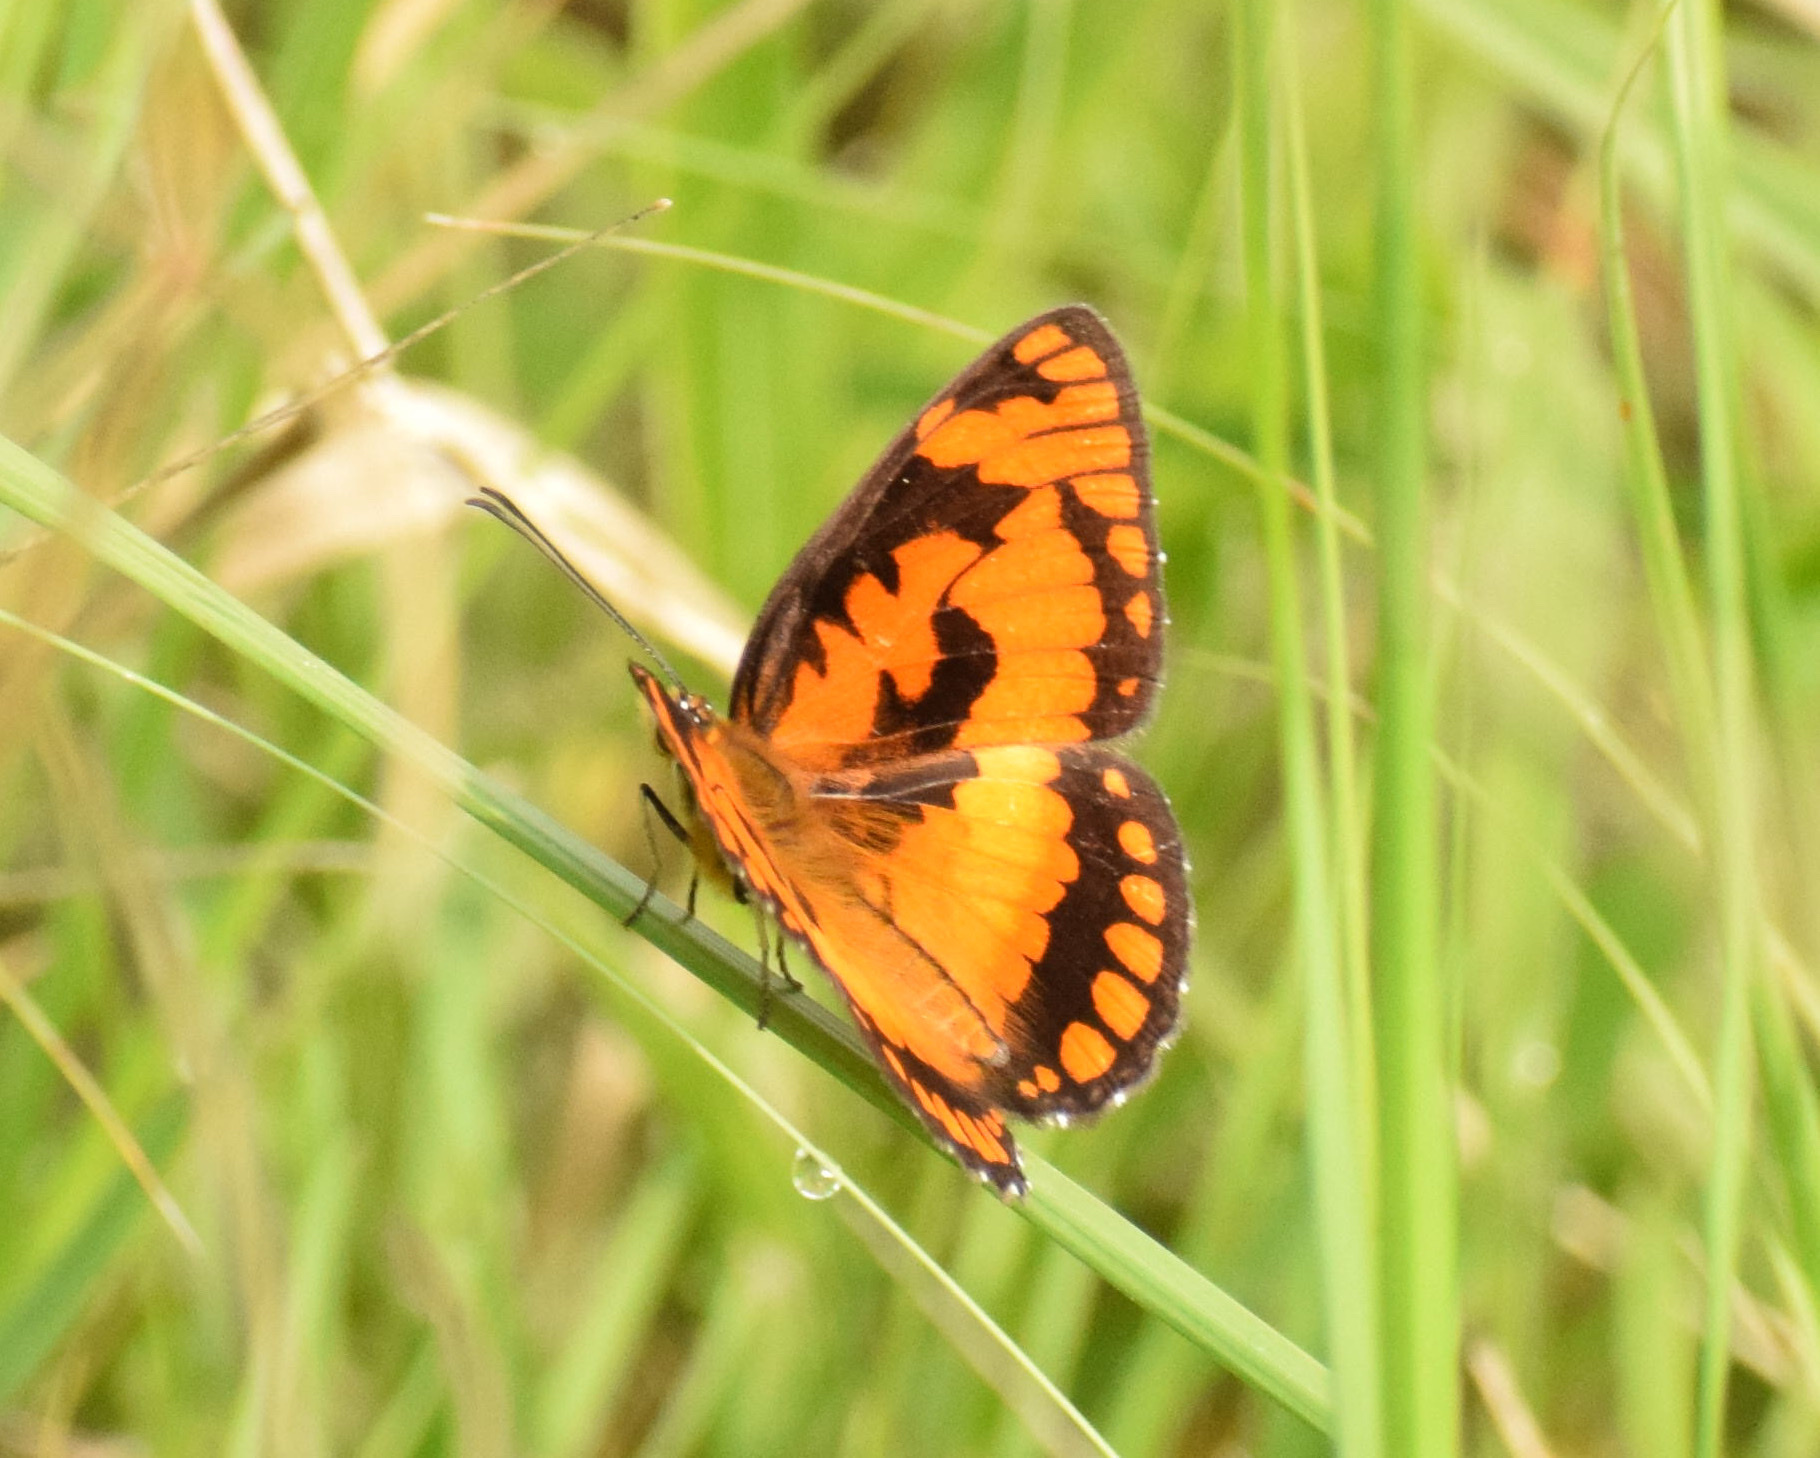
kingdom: Animalia
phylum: Arthropoda
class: Insecta
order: Lepidoptera
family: Nymphalidae
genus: Byblia
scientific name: Byblia acheloia
